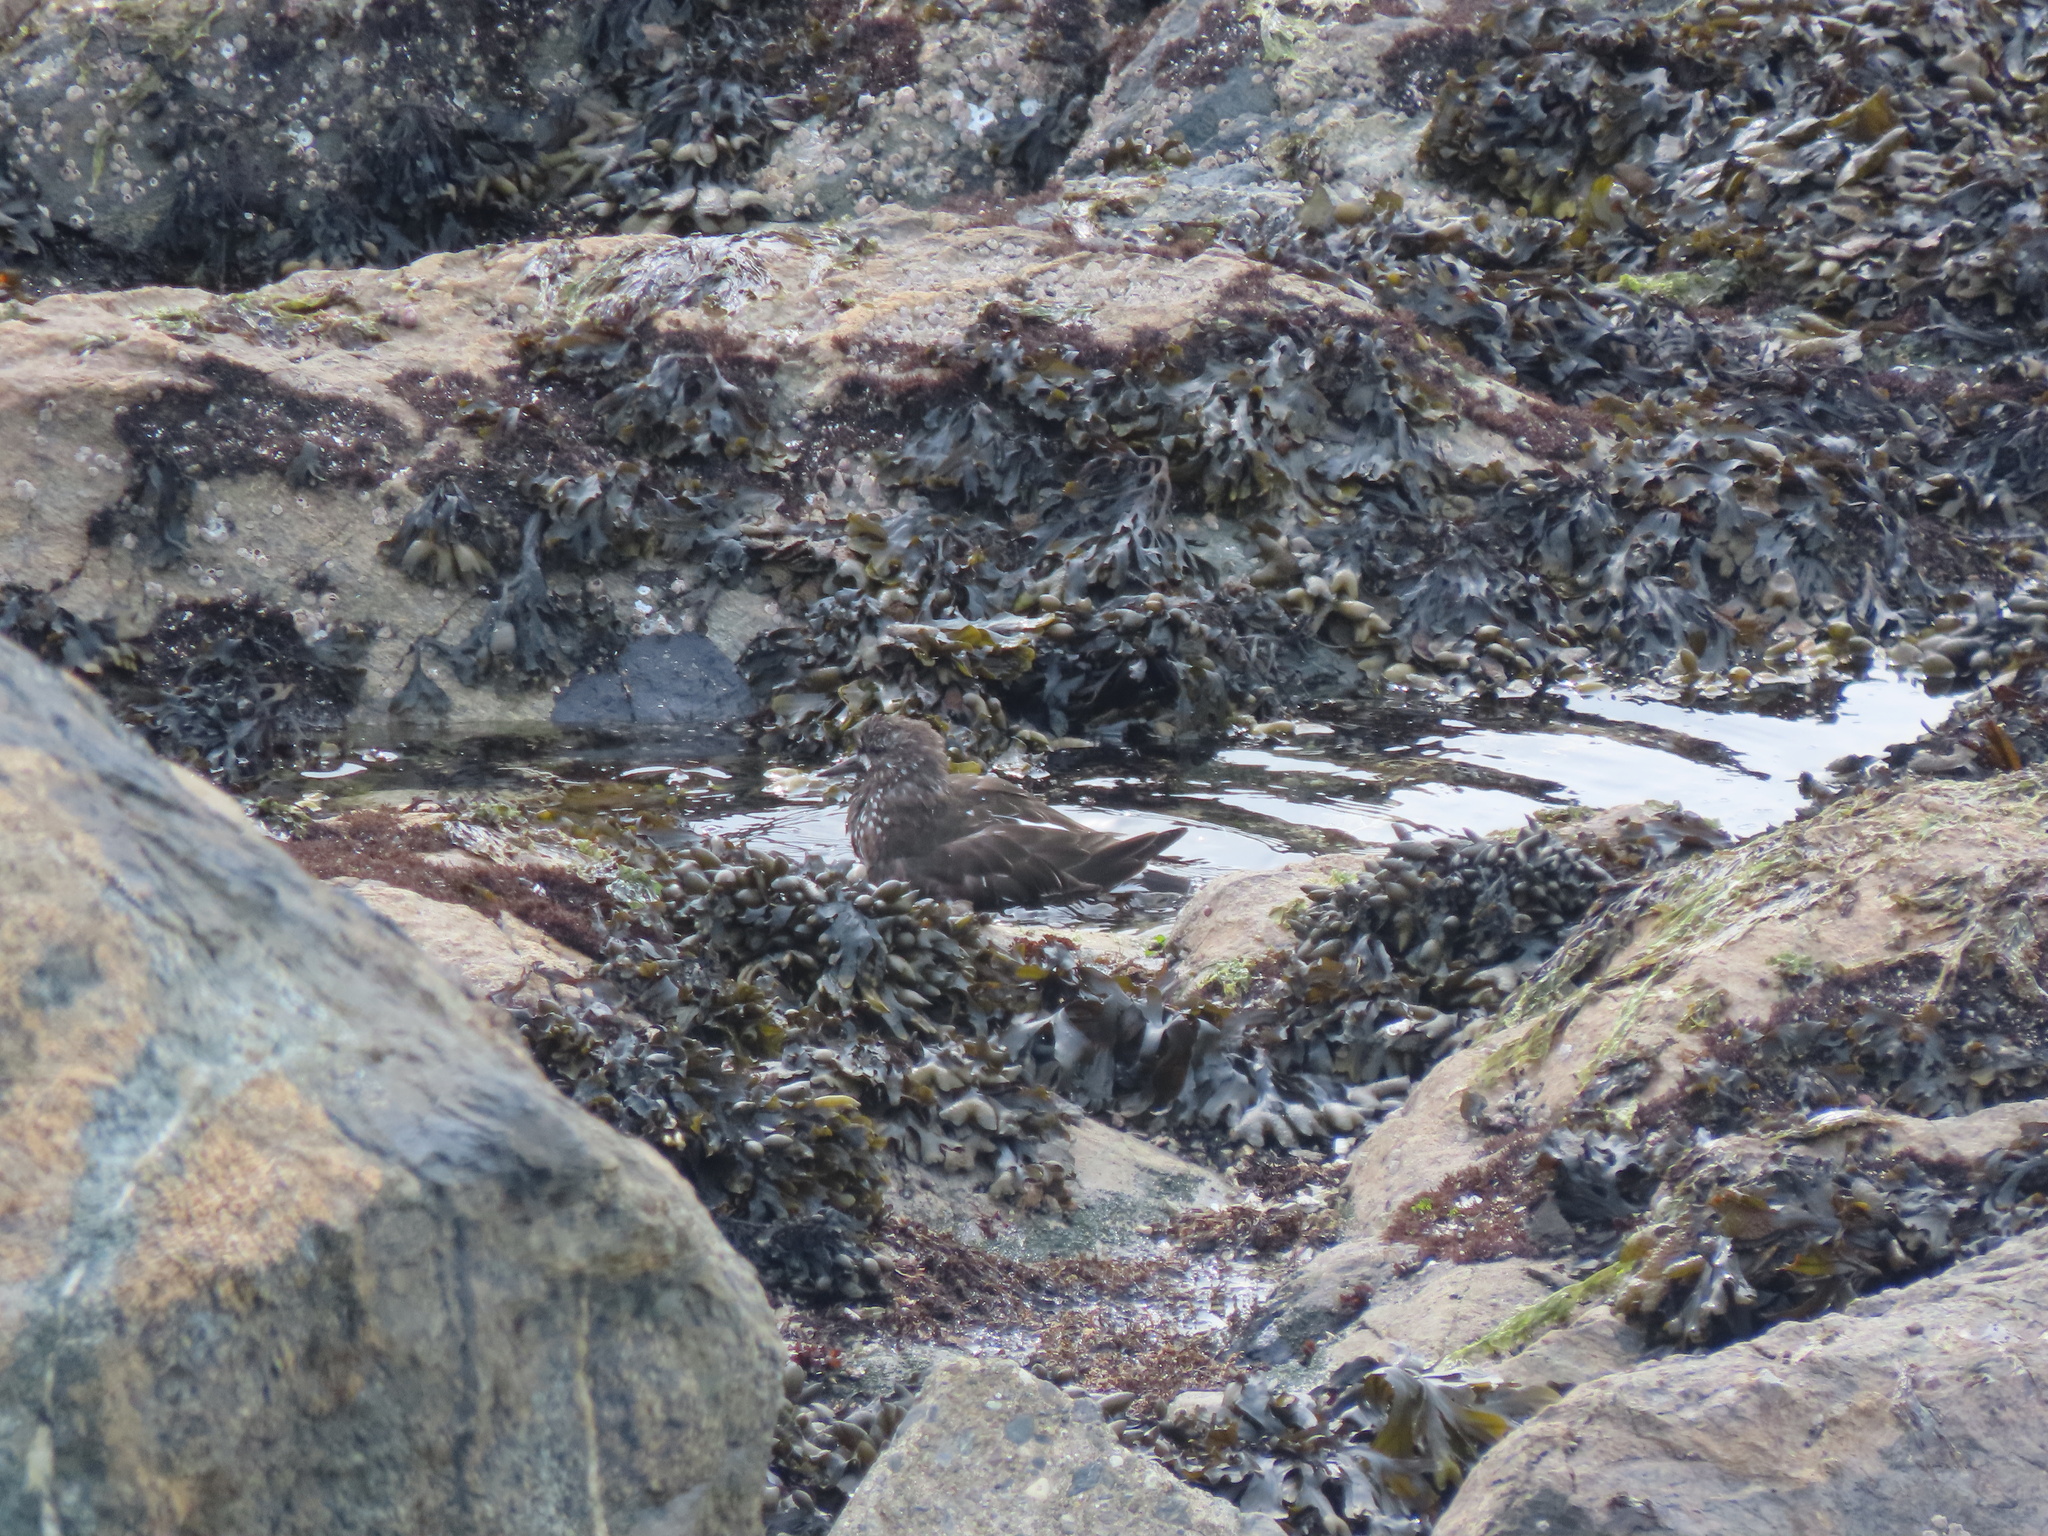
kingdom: Animalia
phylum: Chordata
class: Aves
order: Charadriiformes
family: Scolopacidae
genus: Arenaria
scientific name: Arenaria melanocephala
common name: Black turnstone
